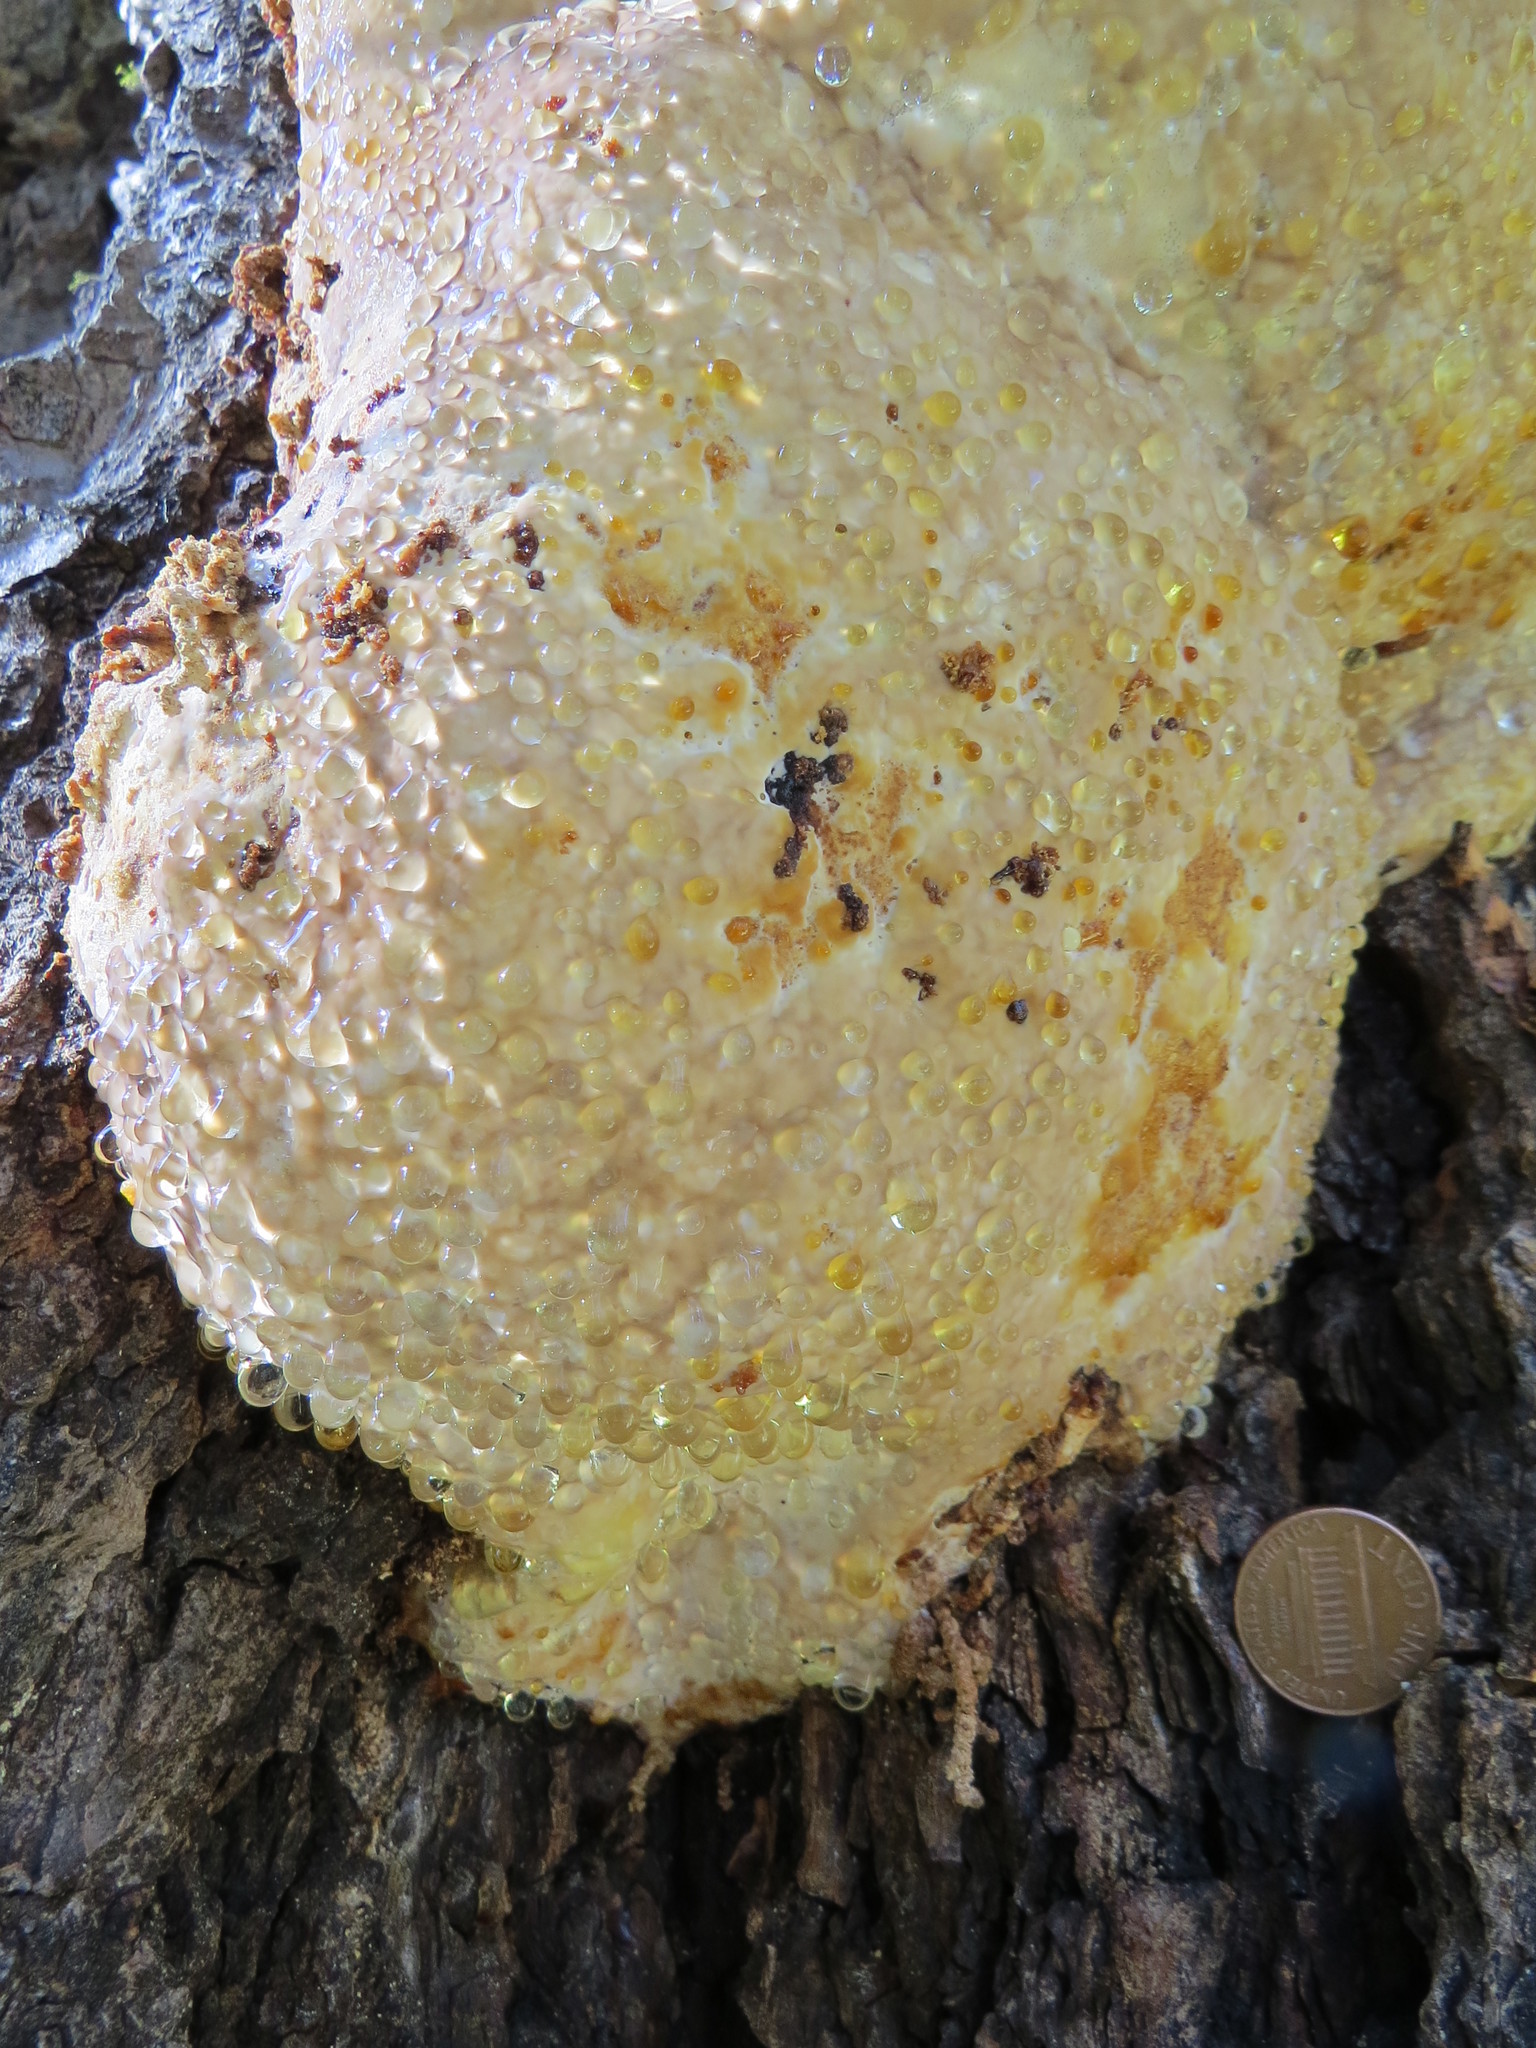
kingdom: Fungi
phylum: Basidiomycota
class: Agaricomycetes
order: Polyporales
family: Fomitopsidaceae
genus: Fomitopsis
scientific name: Fomitopsis mounceae
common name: Northern red belt
